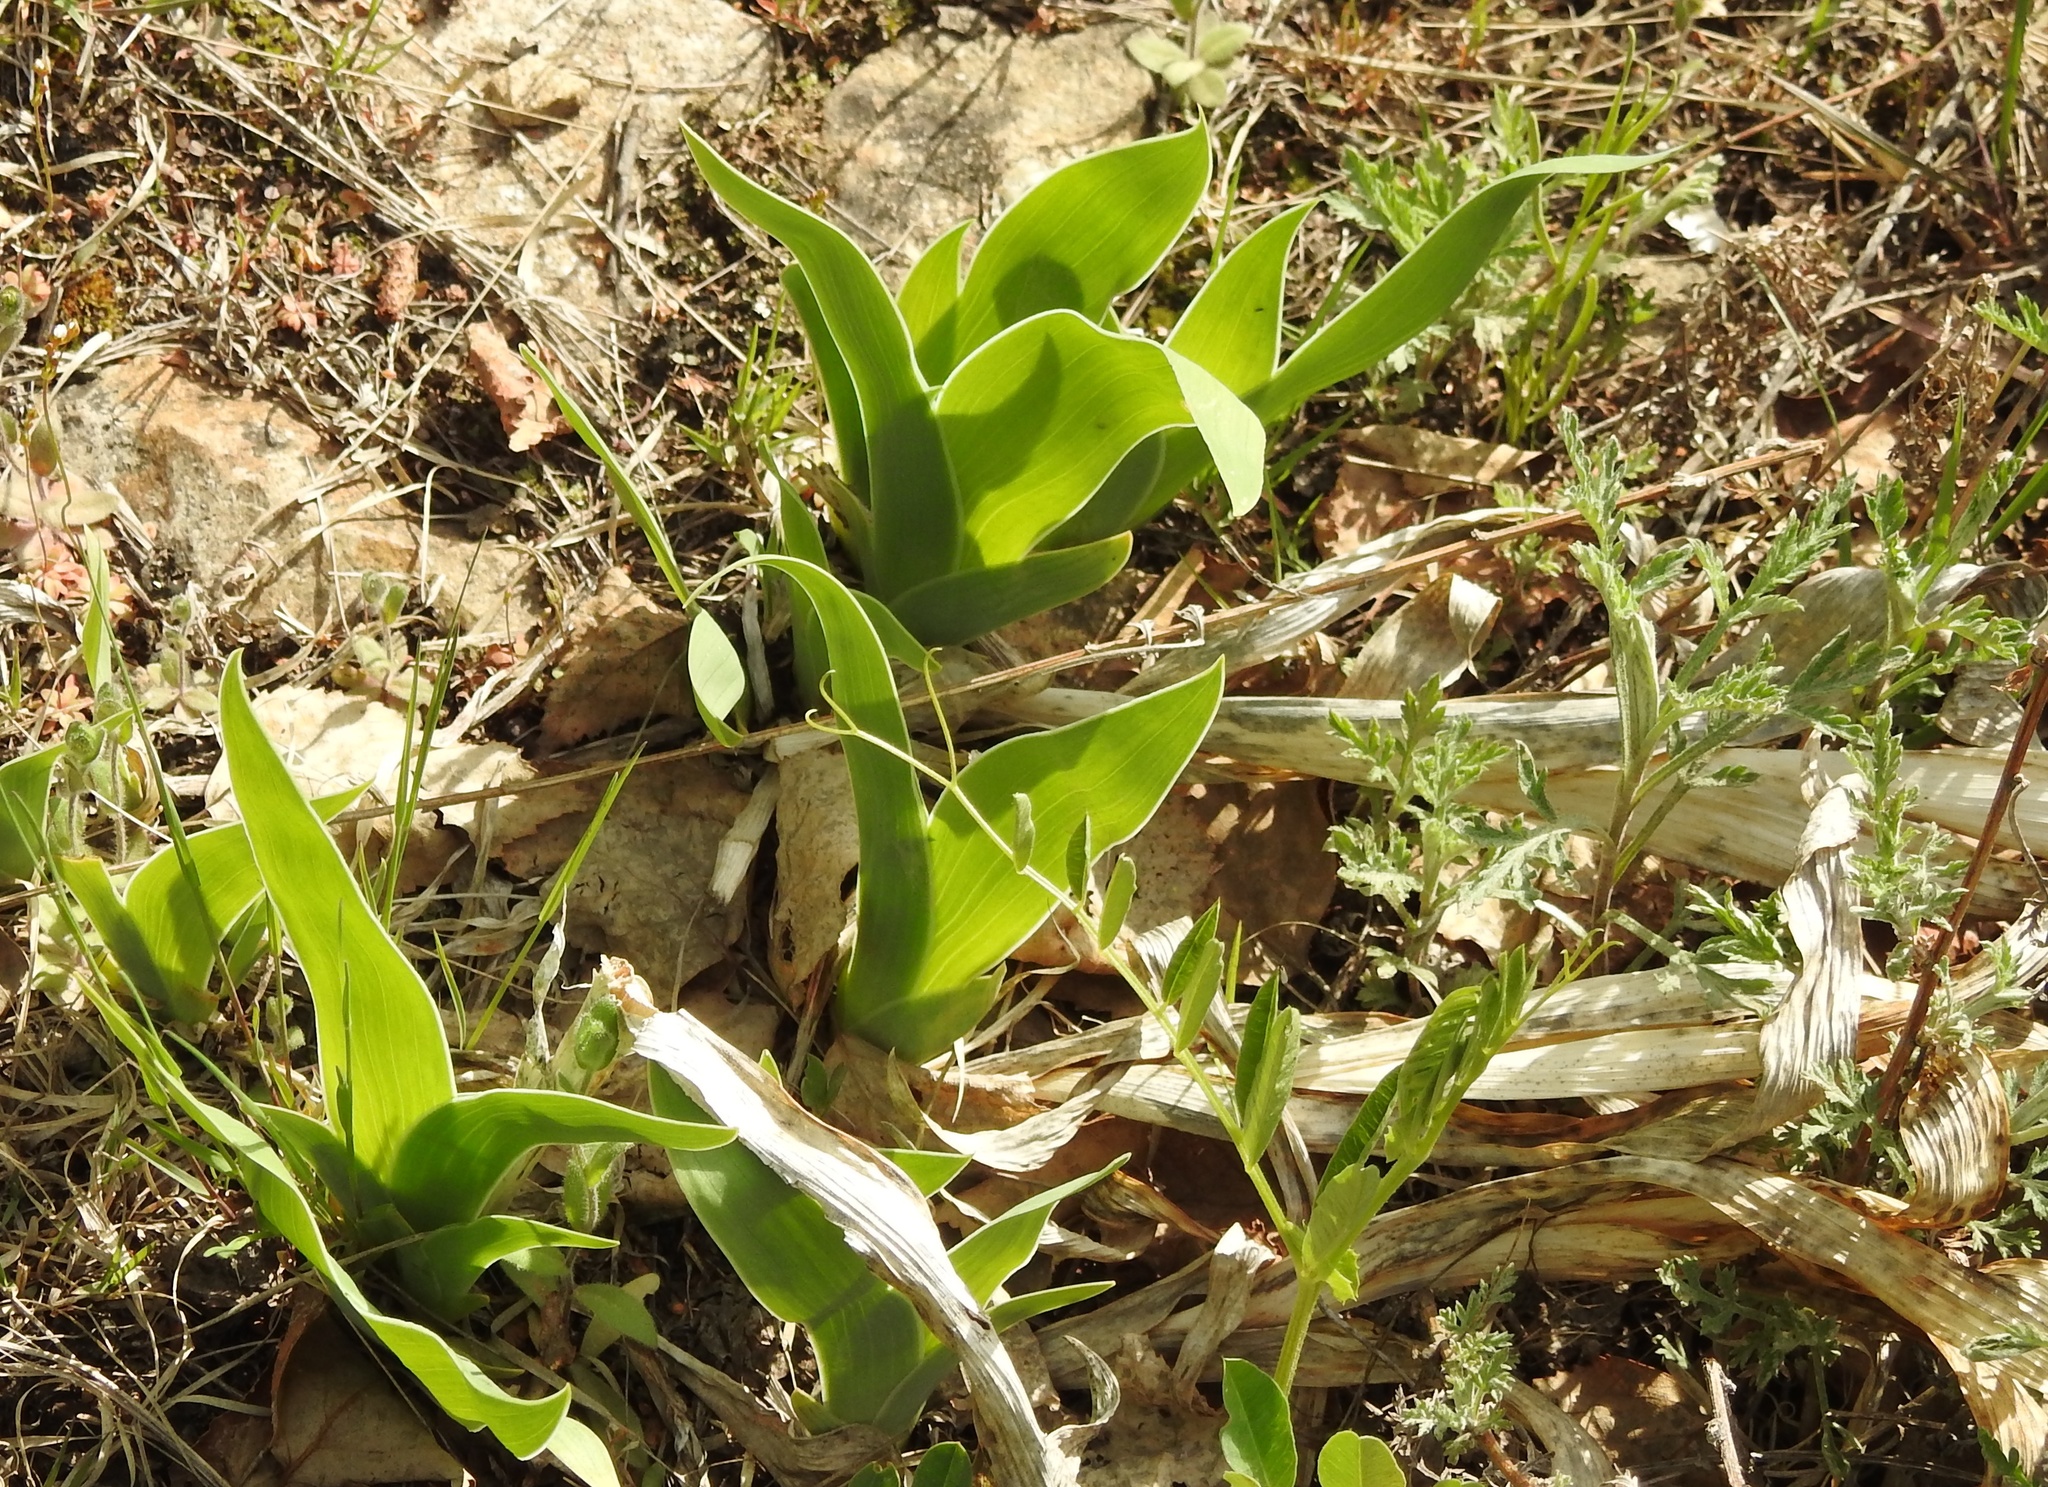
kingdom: Plantae
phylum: Tracheophyta
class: Liliopsida
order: Asparagales
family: Iridaceae
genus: Iris
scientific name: Iris dichotoma
